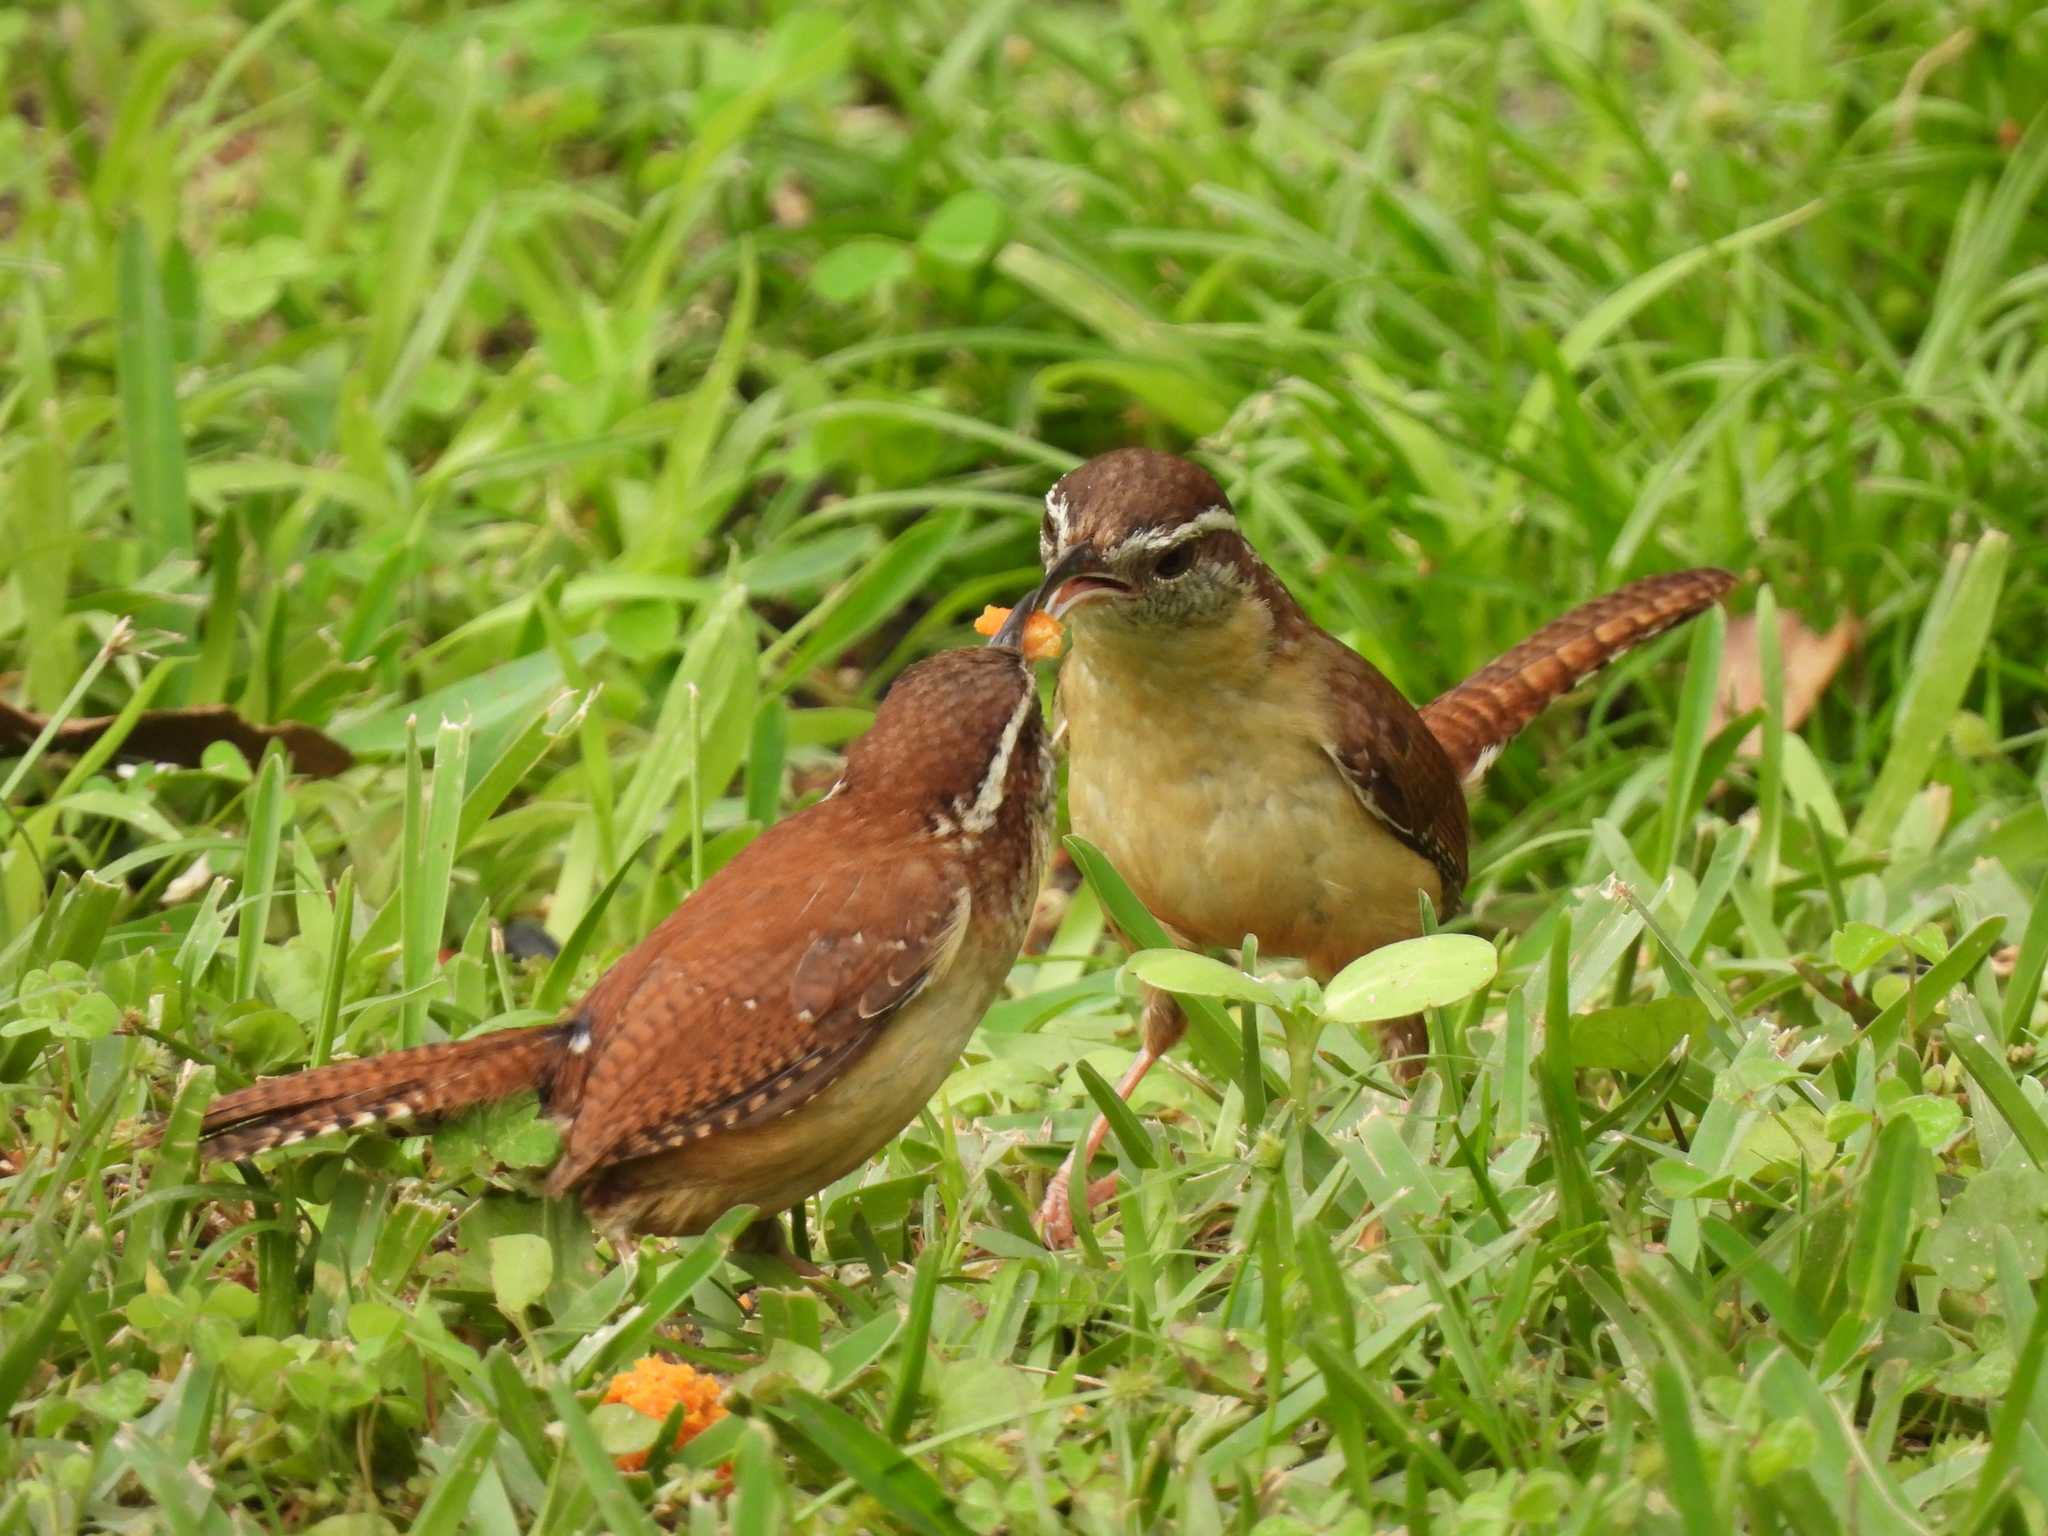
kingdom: Animalia
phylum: Chordata
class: Aves
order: Passeriformes
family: Troglodytidae
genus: Thryothorus
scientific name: Thryothorus ludovicianus
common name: Carolina wren
